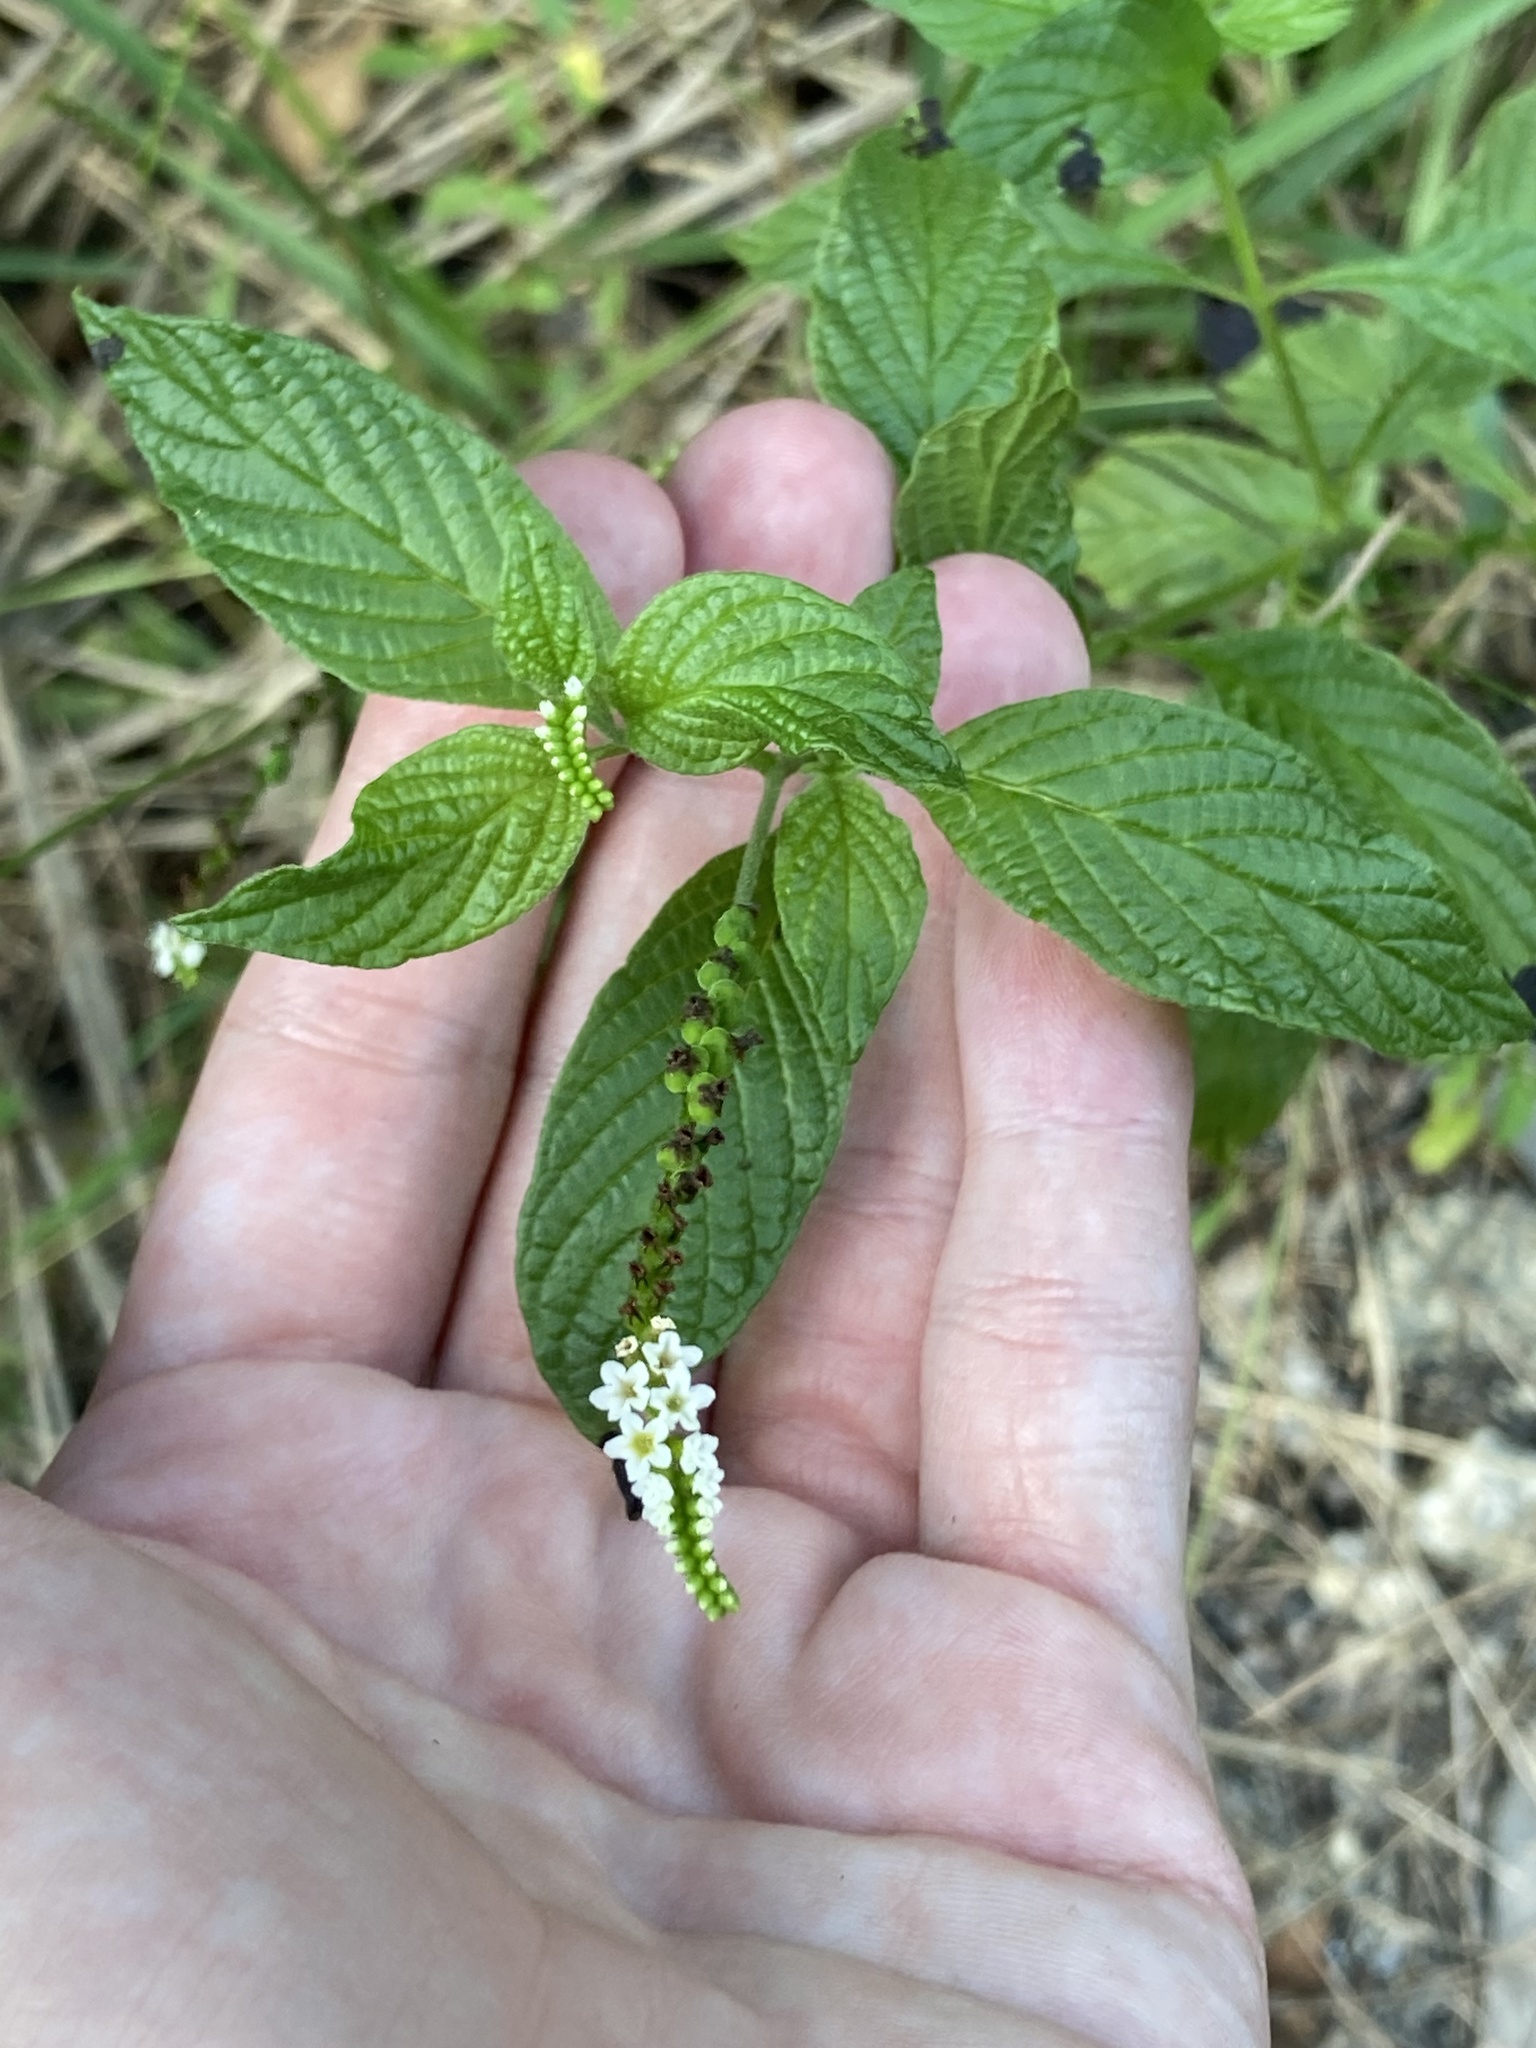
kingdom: Plantae
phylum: Tracheophyta
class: Magnoliopsida
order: Boraginales
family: Heliotropiaceae
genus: Heliotropium
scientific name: Heliotropium angiospermum
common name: Eye bright
